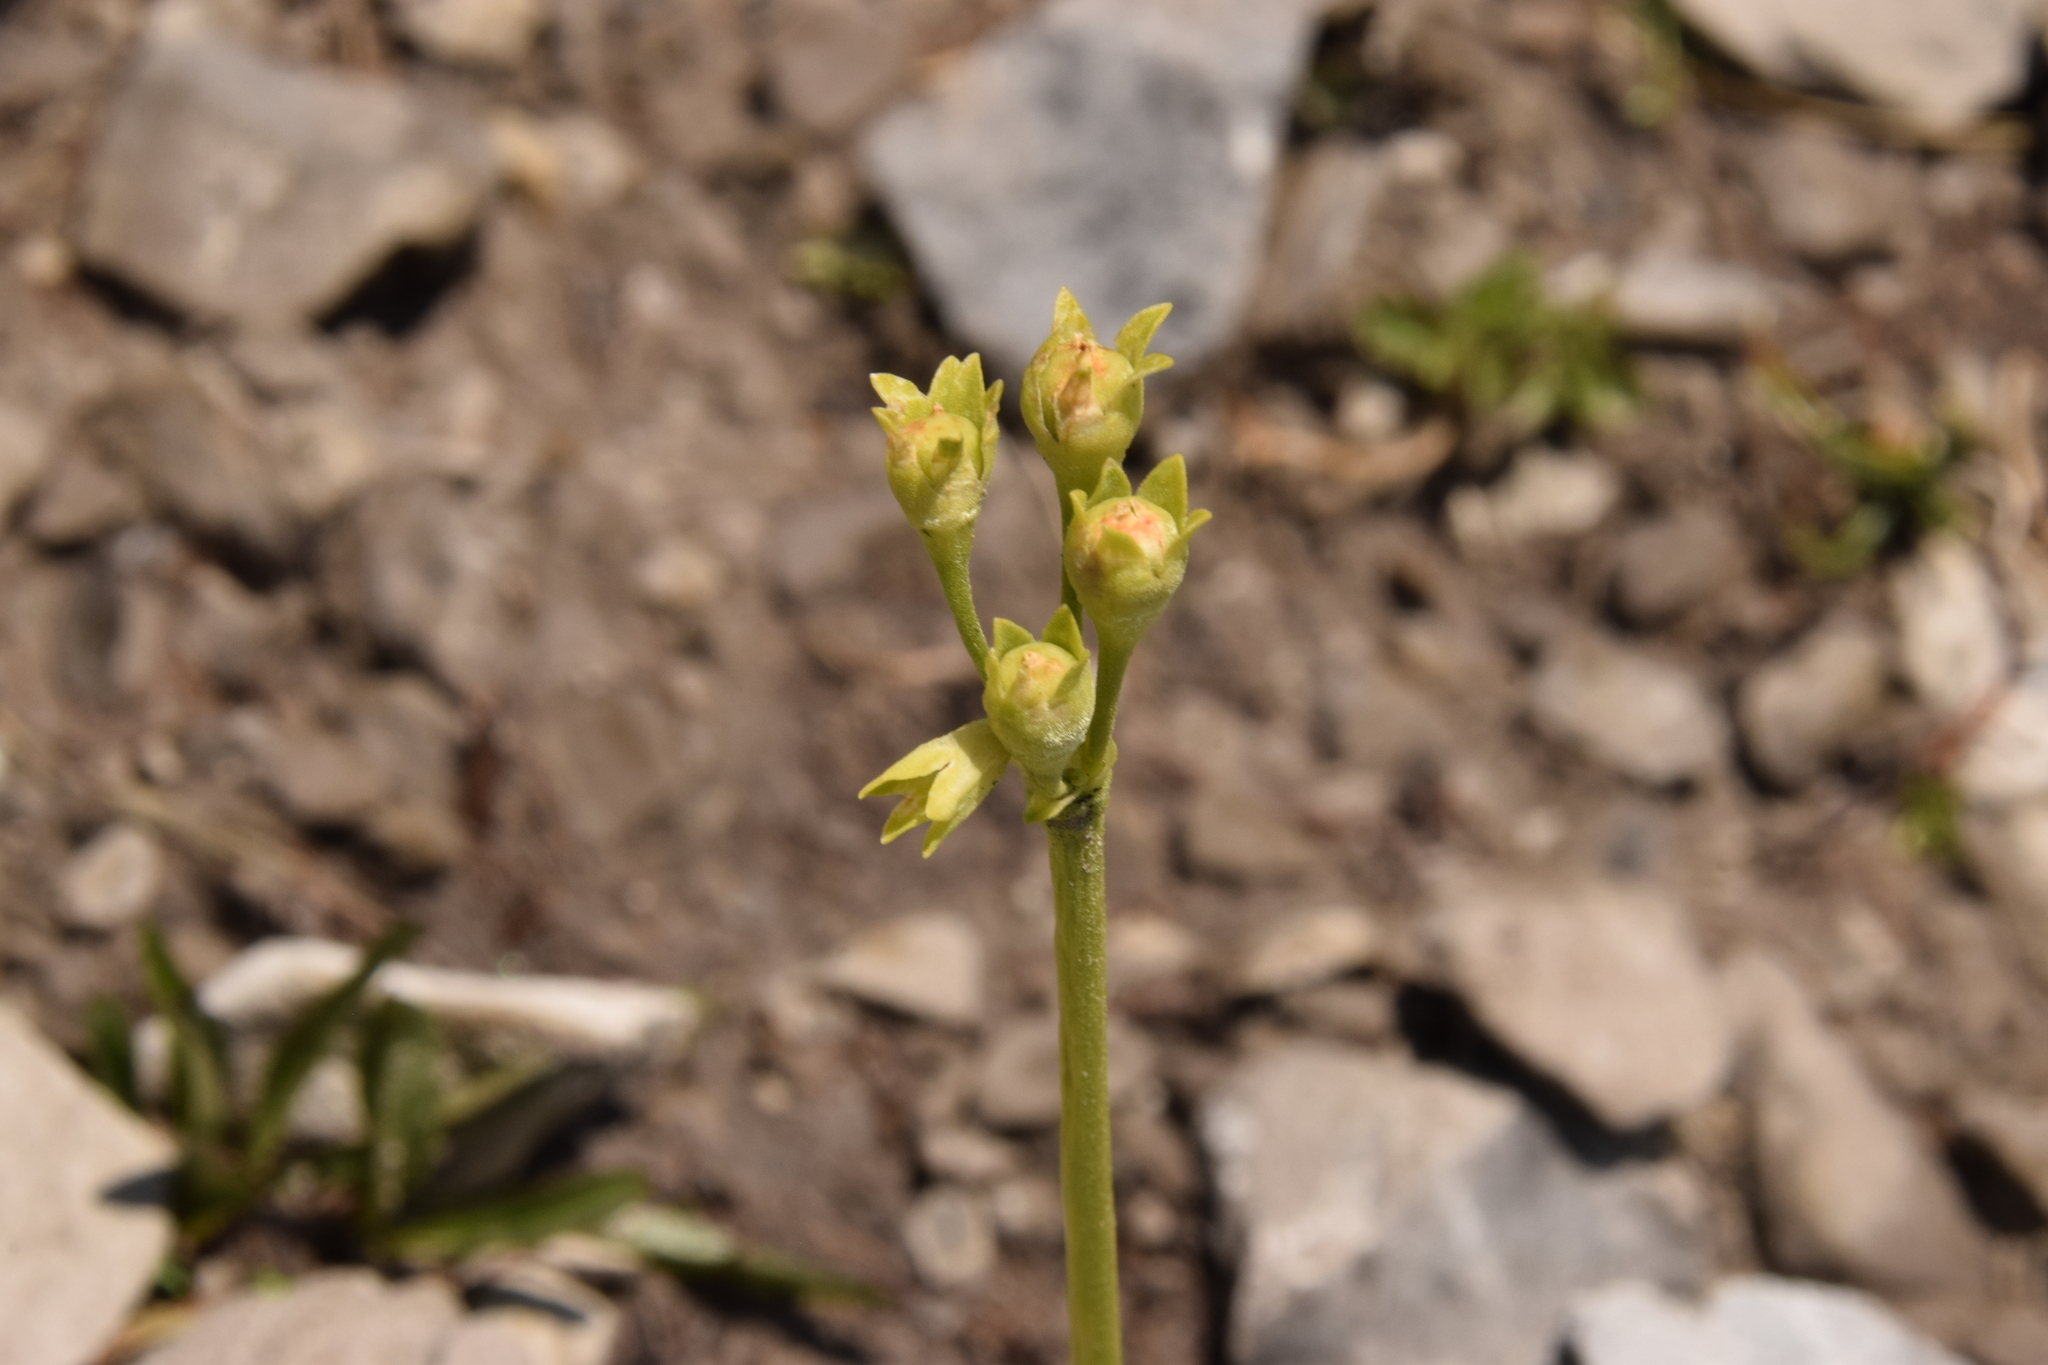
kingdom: Plantae
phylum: Tracheophyta
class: Magnoliopsida
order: Ericales
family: Primulaceae
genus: Primula
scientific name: Primula auricula
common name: Auricula
